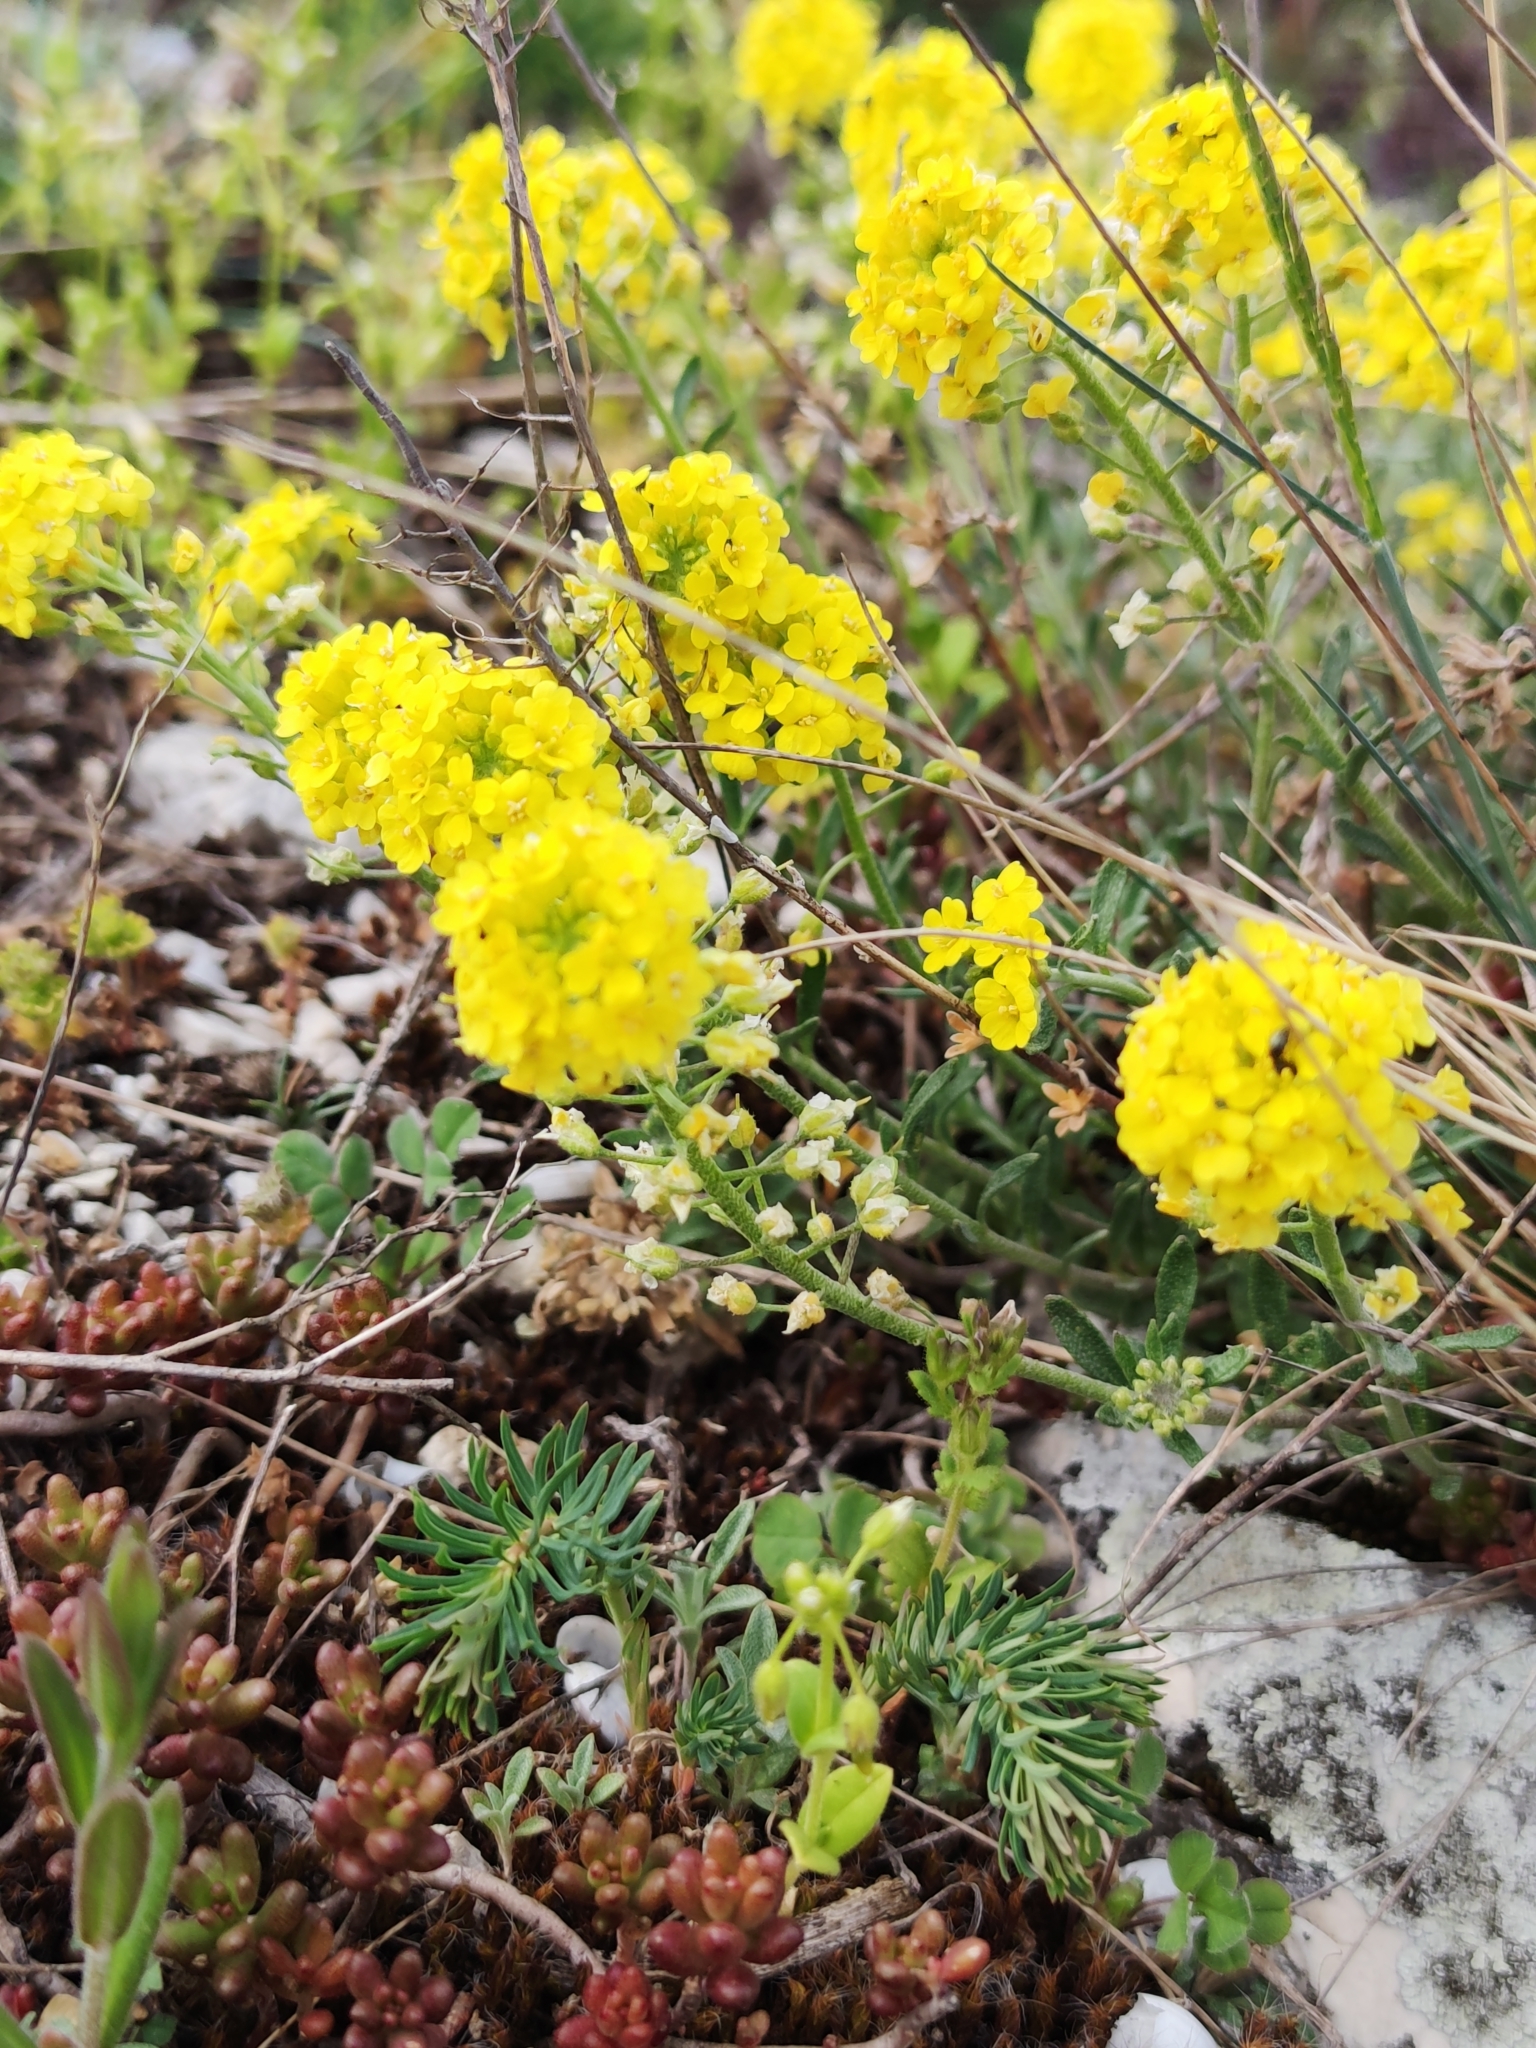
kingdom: Plantae
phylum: Tracheophyta
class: Magnoliopsida
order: Brassicales
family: Brassicaceae
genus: Alyssum
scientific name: Alyssum gmelinii
